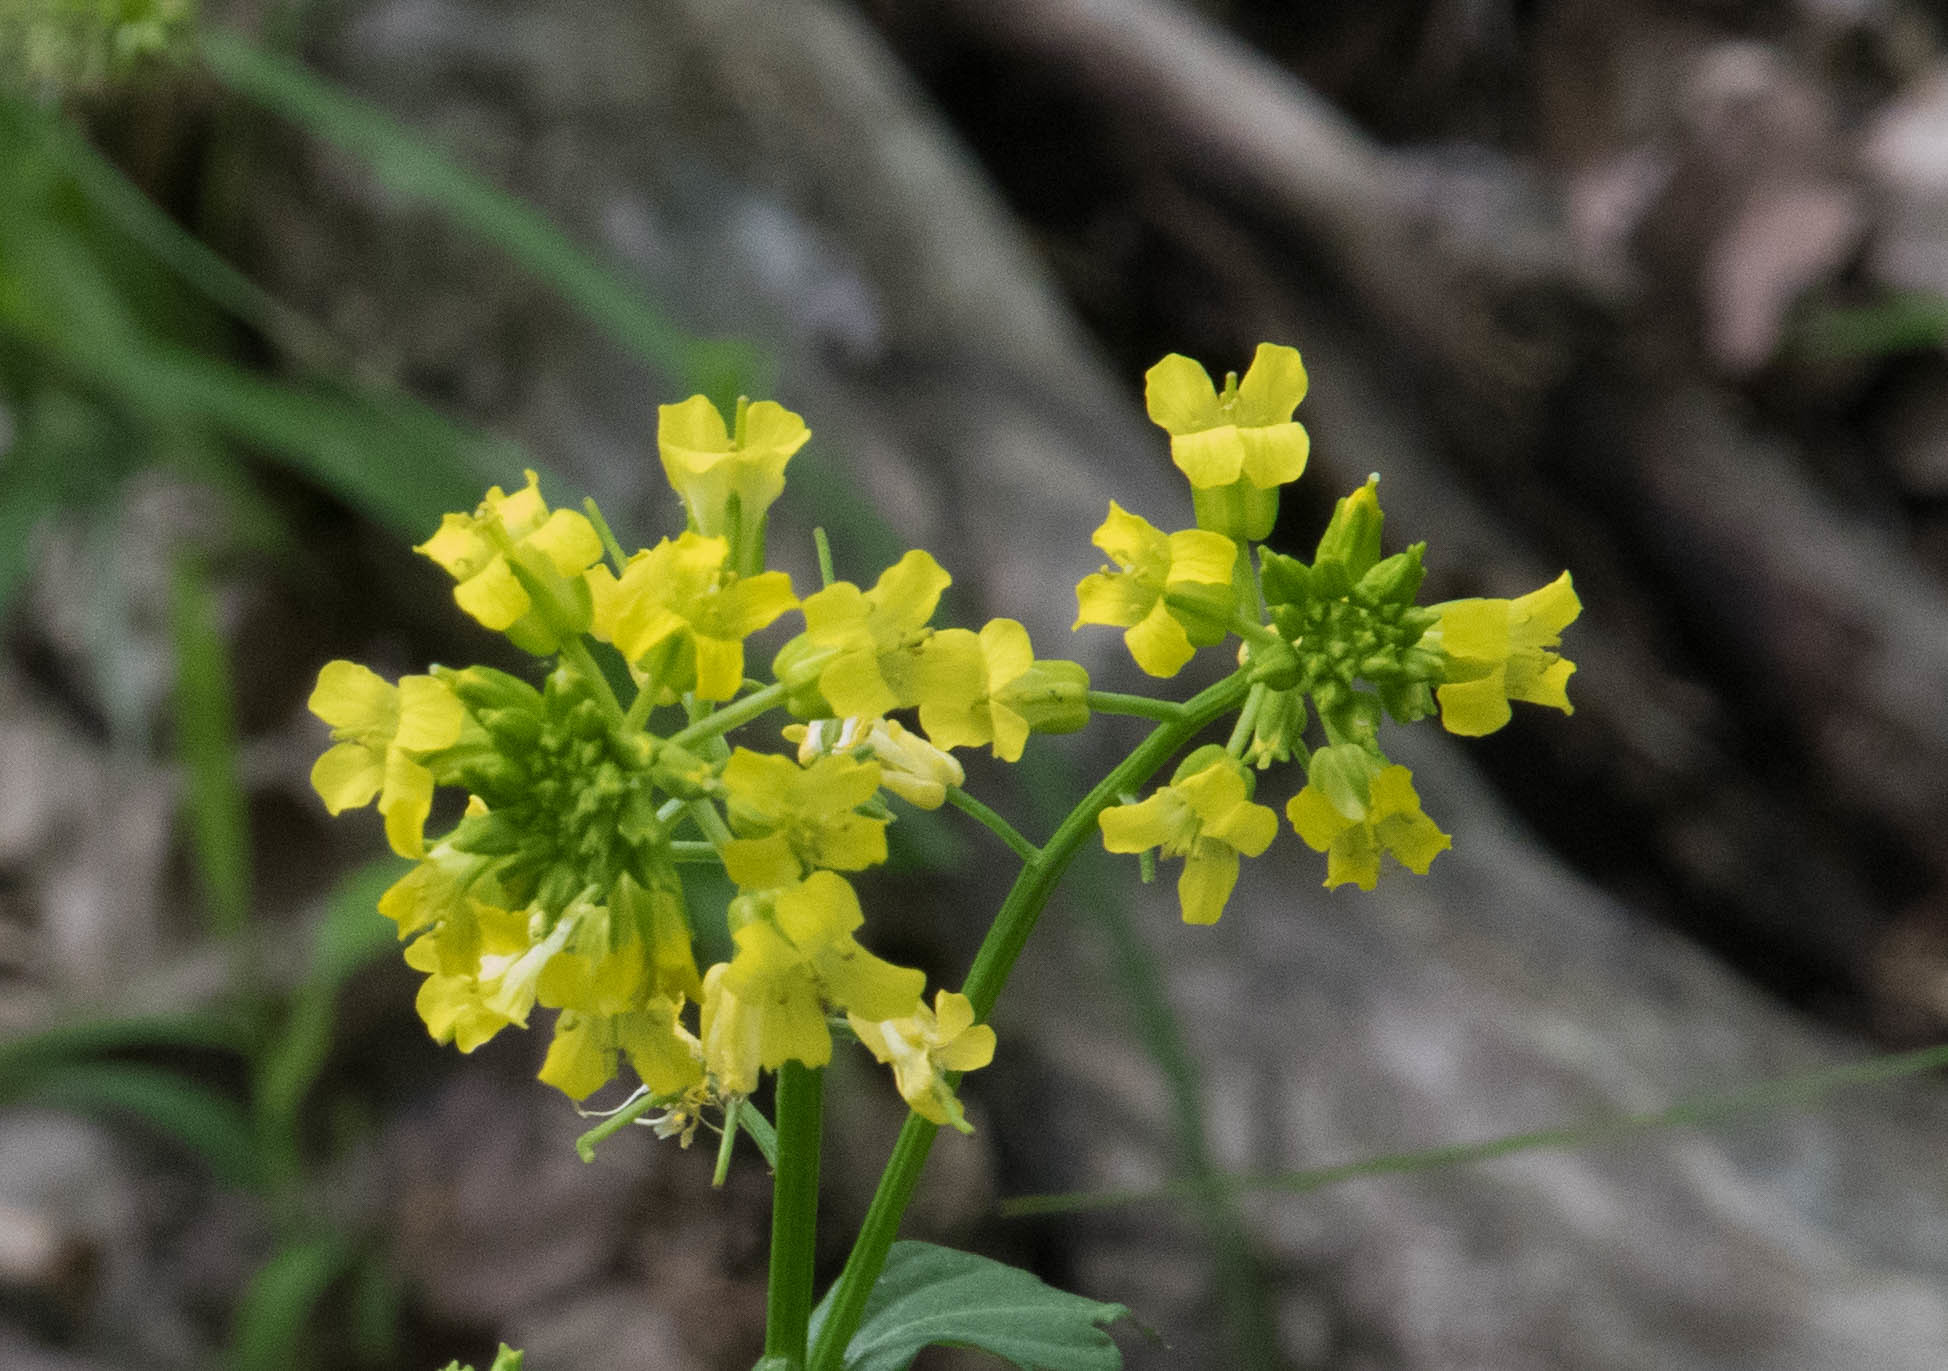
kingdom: Plantae
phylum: Tracheophyta
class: Magnoliopsida
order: Brassicales
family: Brassicaceae
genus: Barbarea
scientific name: Barbarea vulgaris
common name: Cressy-greens
